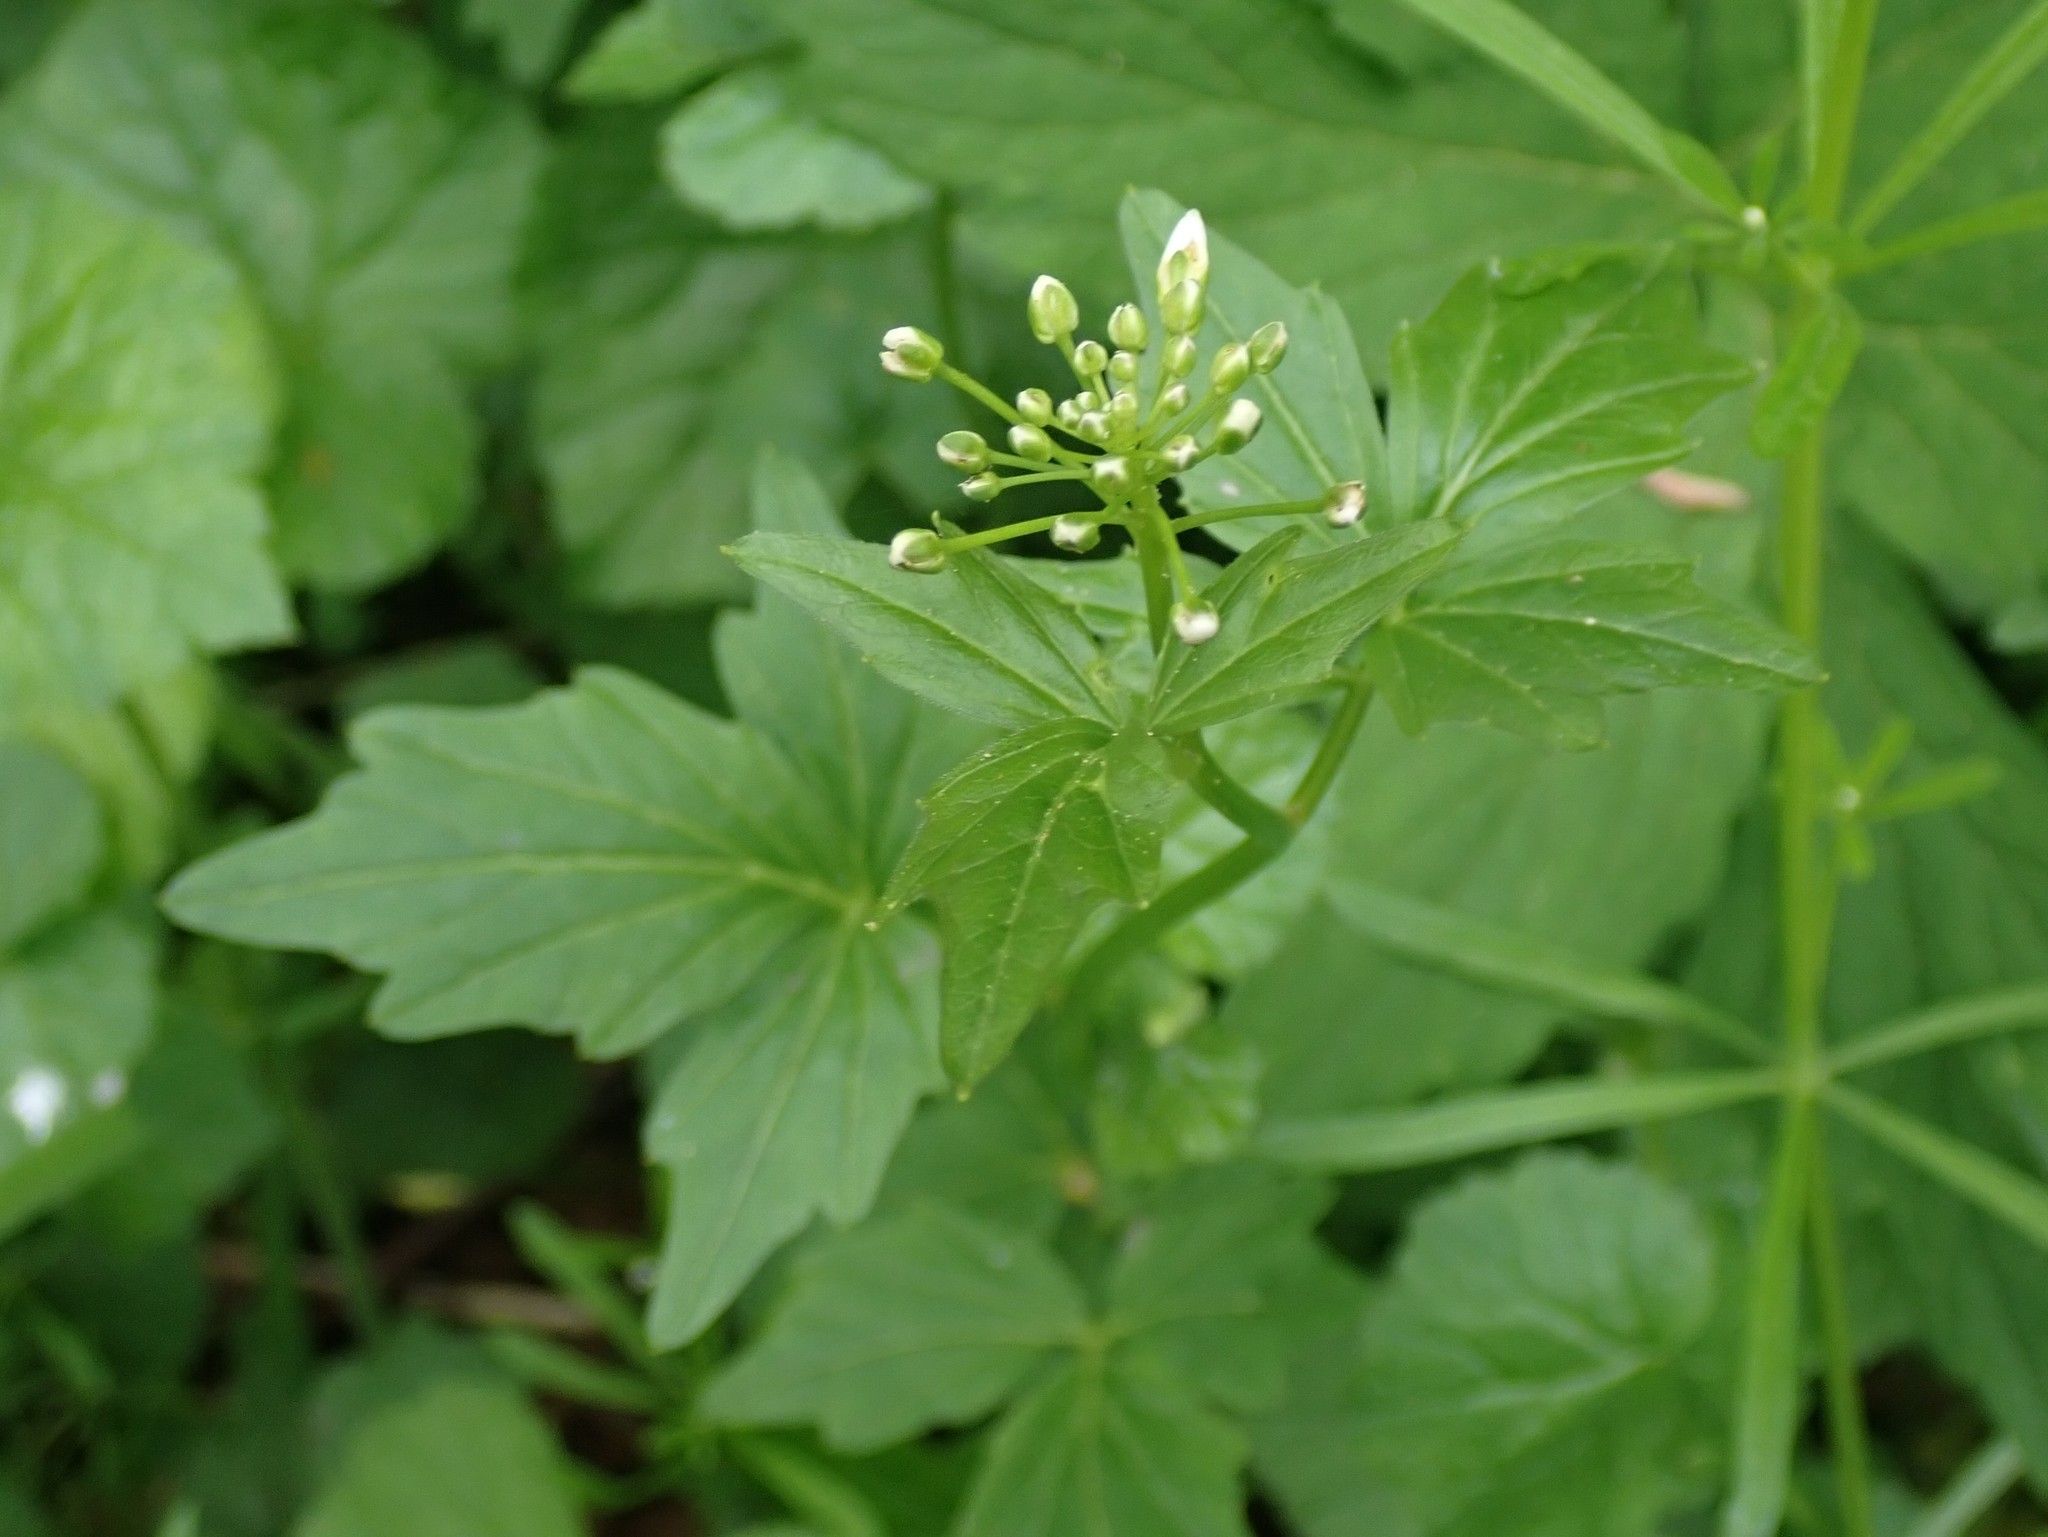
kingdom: Plantae
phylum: Tracheophyta
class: Magnoliopsida
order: Brassicales
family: Brassicaceae
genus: Cardamine
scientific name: Cardamine angulata
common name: Angled bittercress
